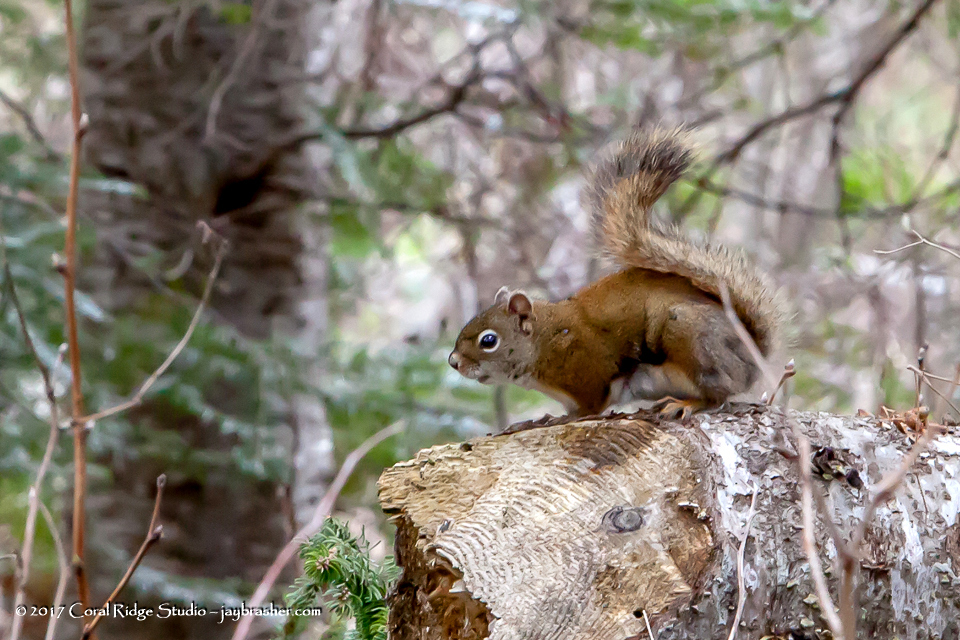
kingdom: Animalia
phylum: Chordata
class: Mammalia
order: Rodentia
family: Sciuridae
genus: Tamiasciurus
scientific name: Tamiasciurus hudsonicus
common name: Red squirrel
